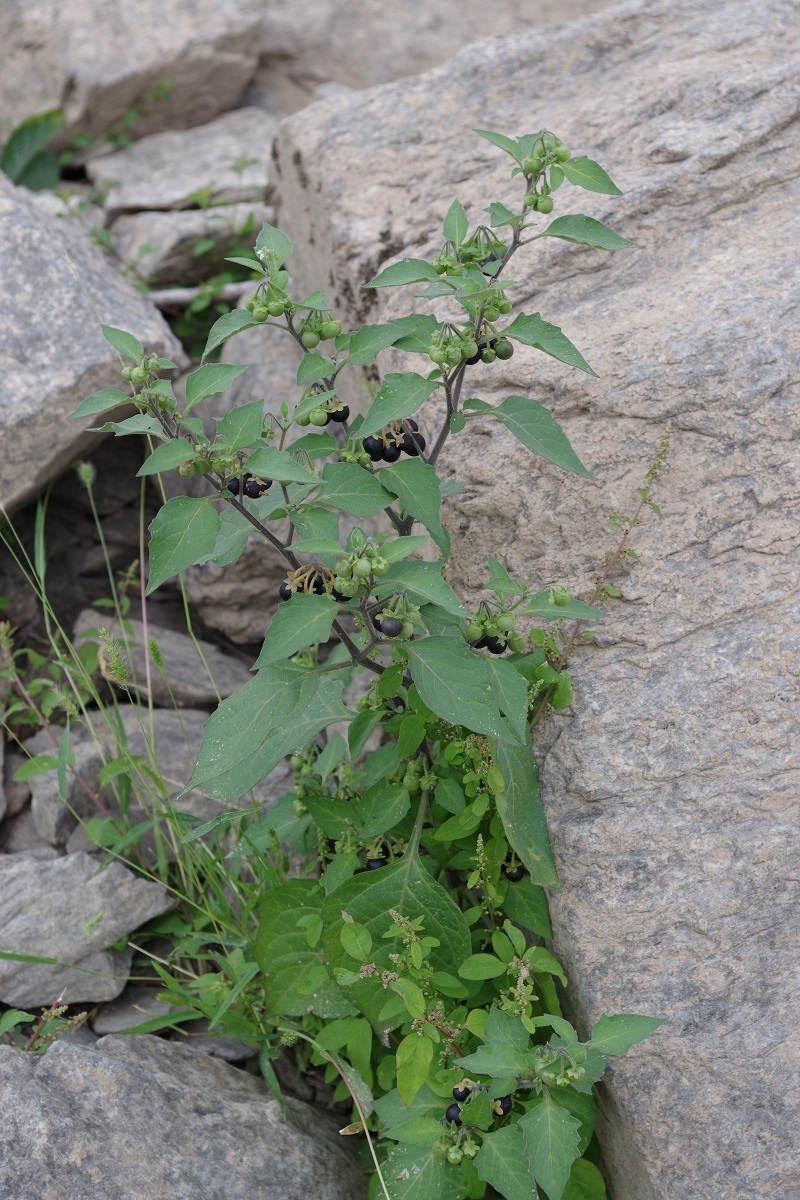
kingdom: Plantae
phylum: Tracheophyta
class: Magnoliopsida
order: Solanales
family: Solanaceae
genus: Solanum
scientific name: Solanum nigrum
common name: Black nightshade
